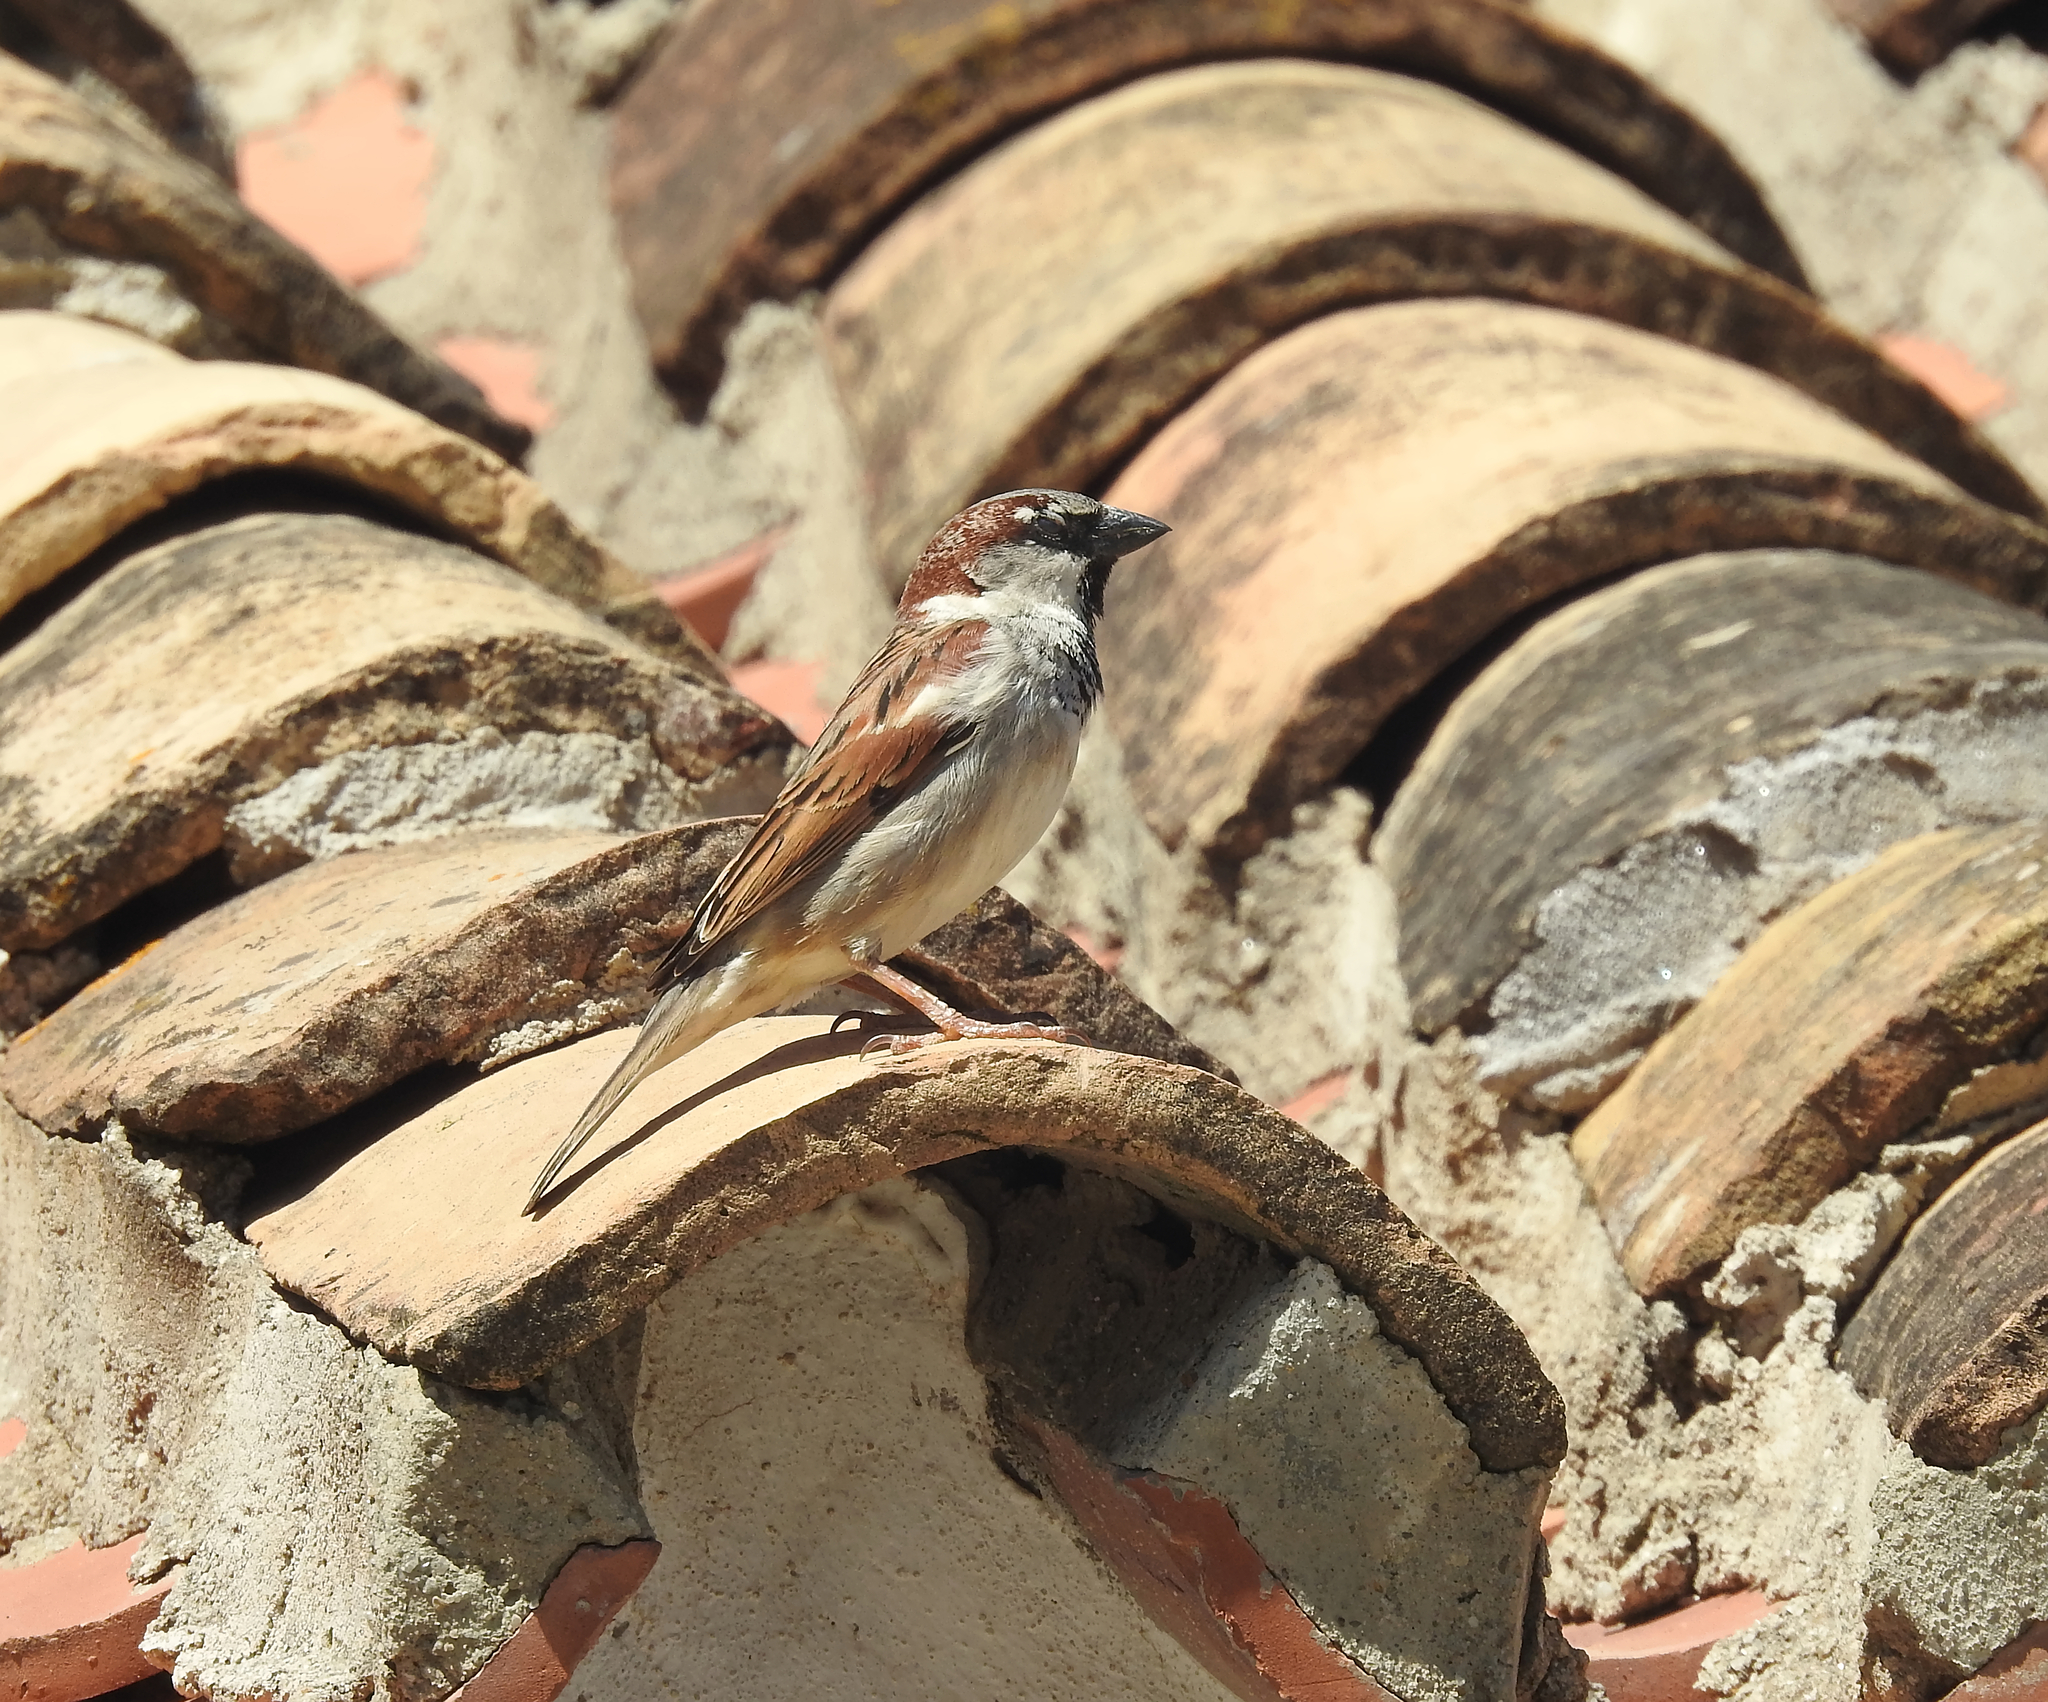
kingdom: Animalia
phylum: Chordata
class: Aves
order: Passeriformes
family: Passeridae
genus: Passer
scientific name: Passer domesticus
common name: House sparrow
